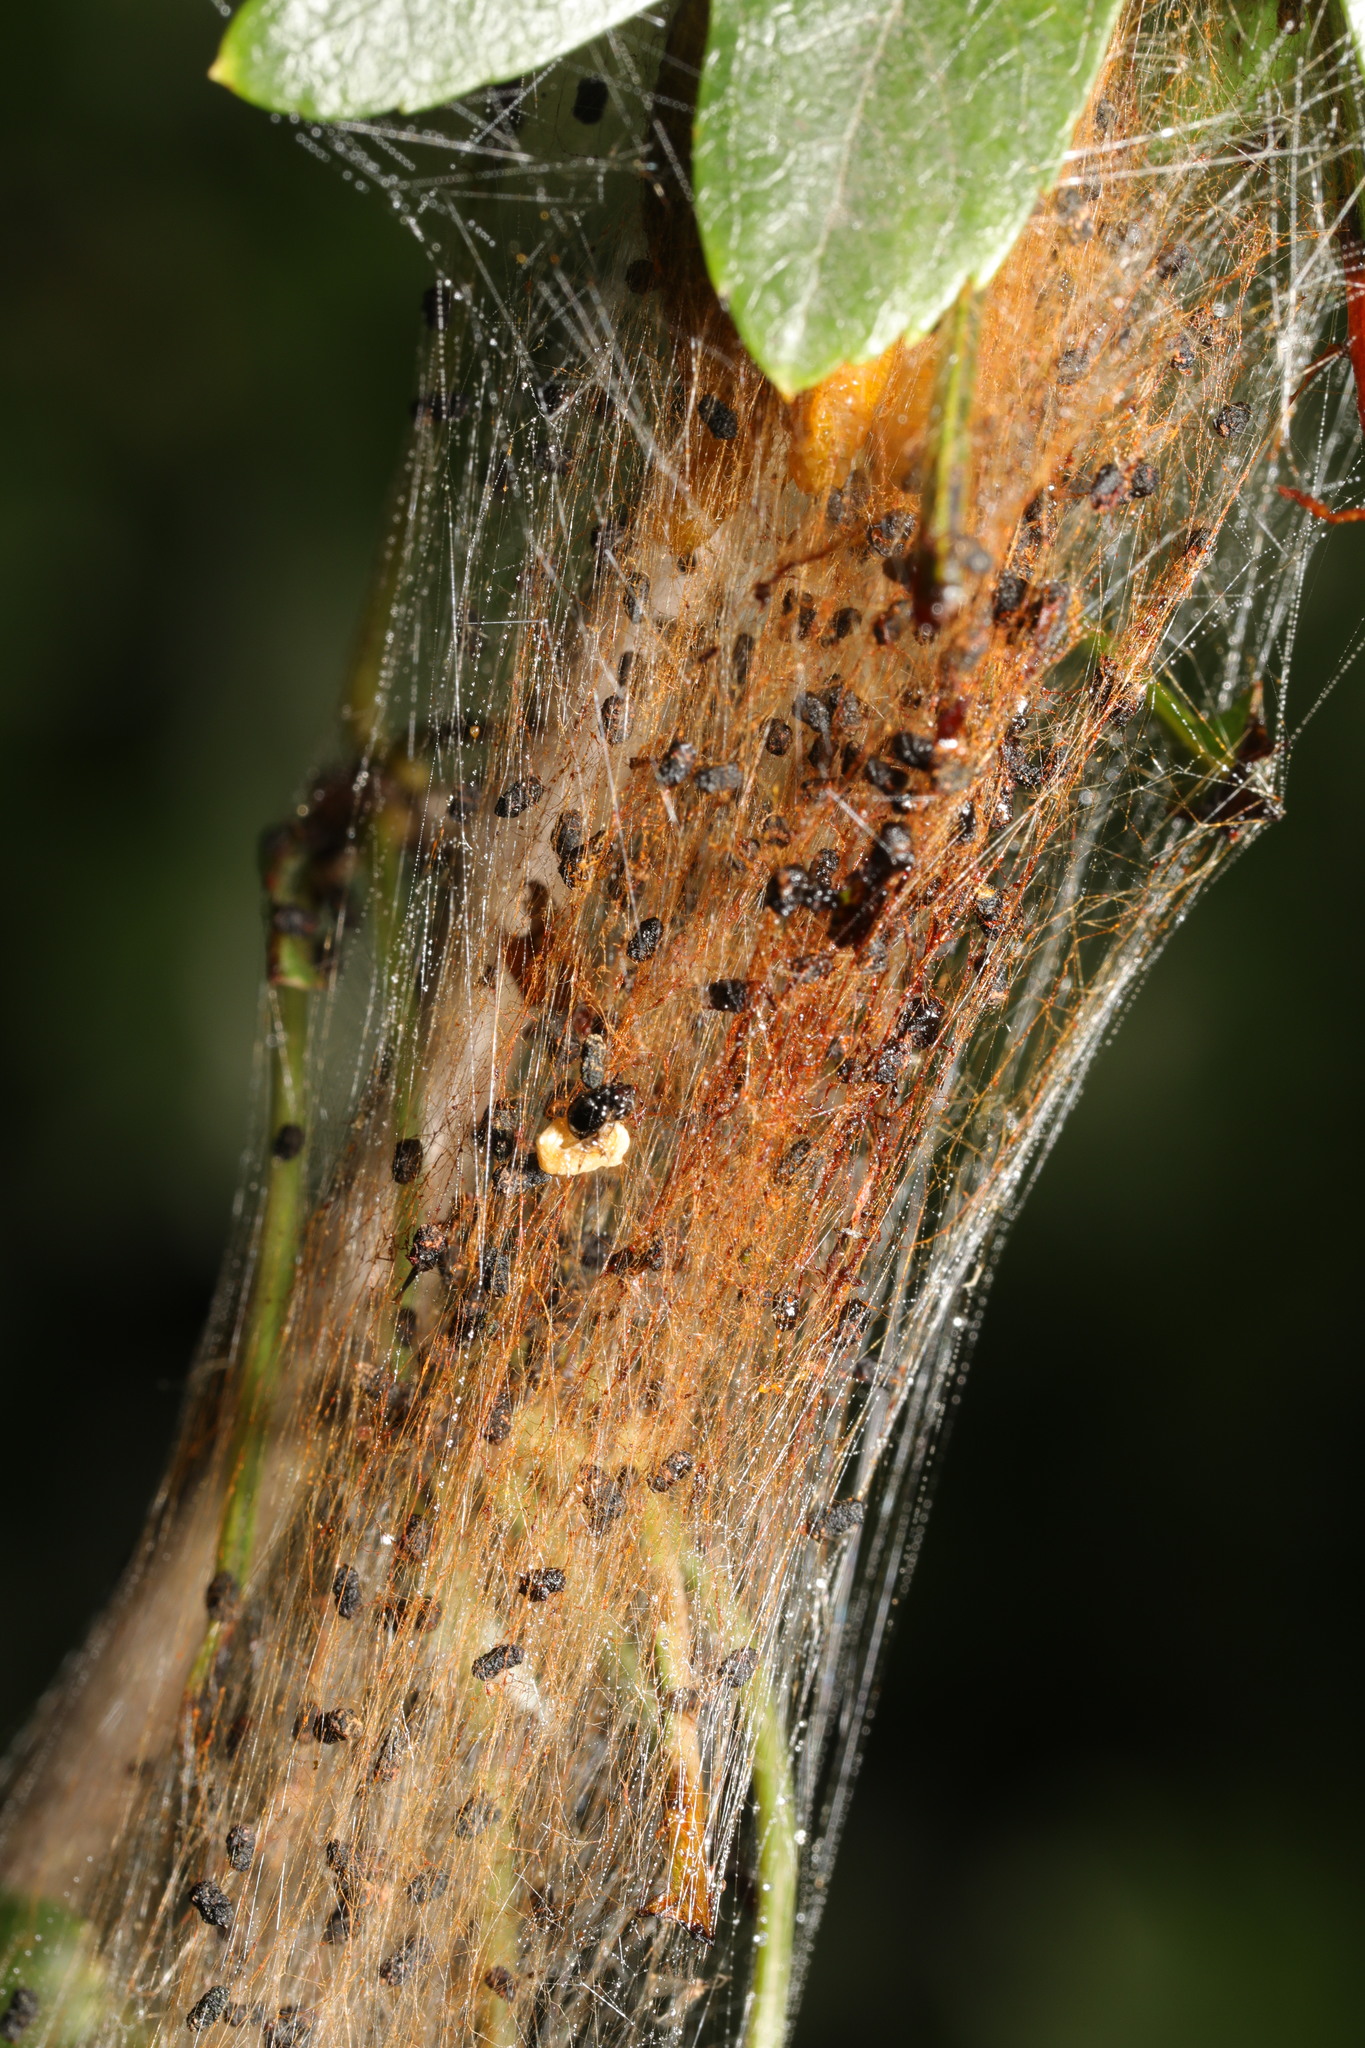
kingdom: Animalia
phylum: Arthropoda
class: Insecta
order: Hymenoptera
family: Pamphiliidae
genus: Neurotoma
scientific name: Neurotoma saltuum
